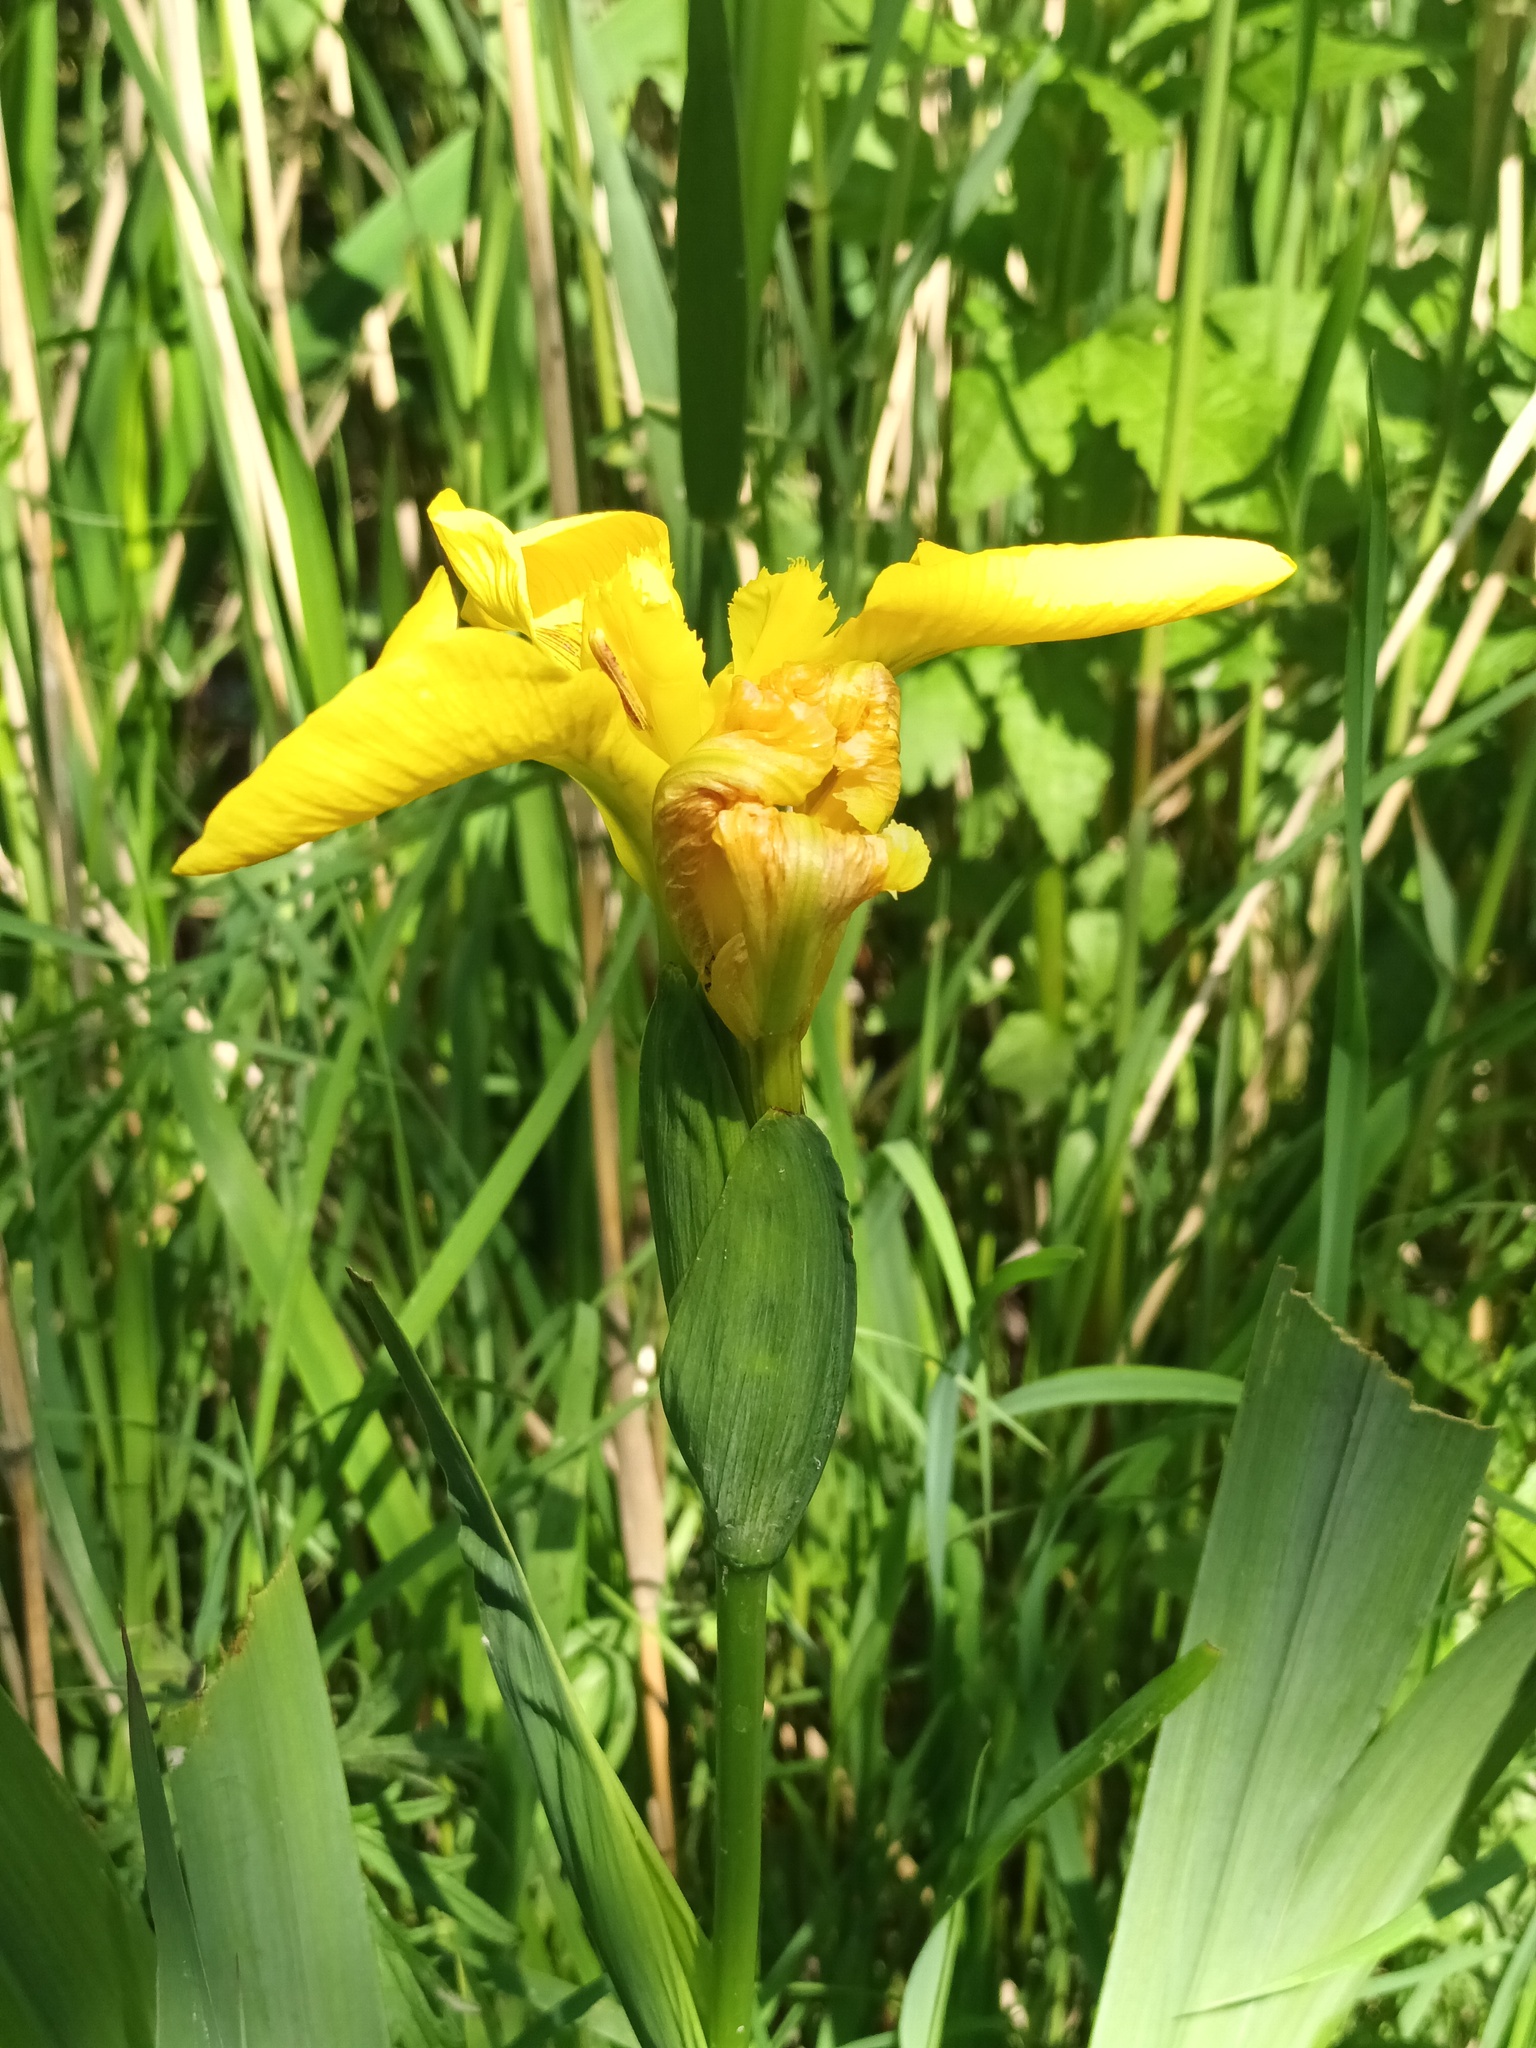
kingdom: Plantae
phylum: Tracheophyta
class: Liliopsida
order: Asparagales
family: Iridaceae
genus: Iris
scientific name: Iris pseudacorus
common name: Yellow flag
